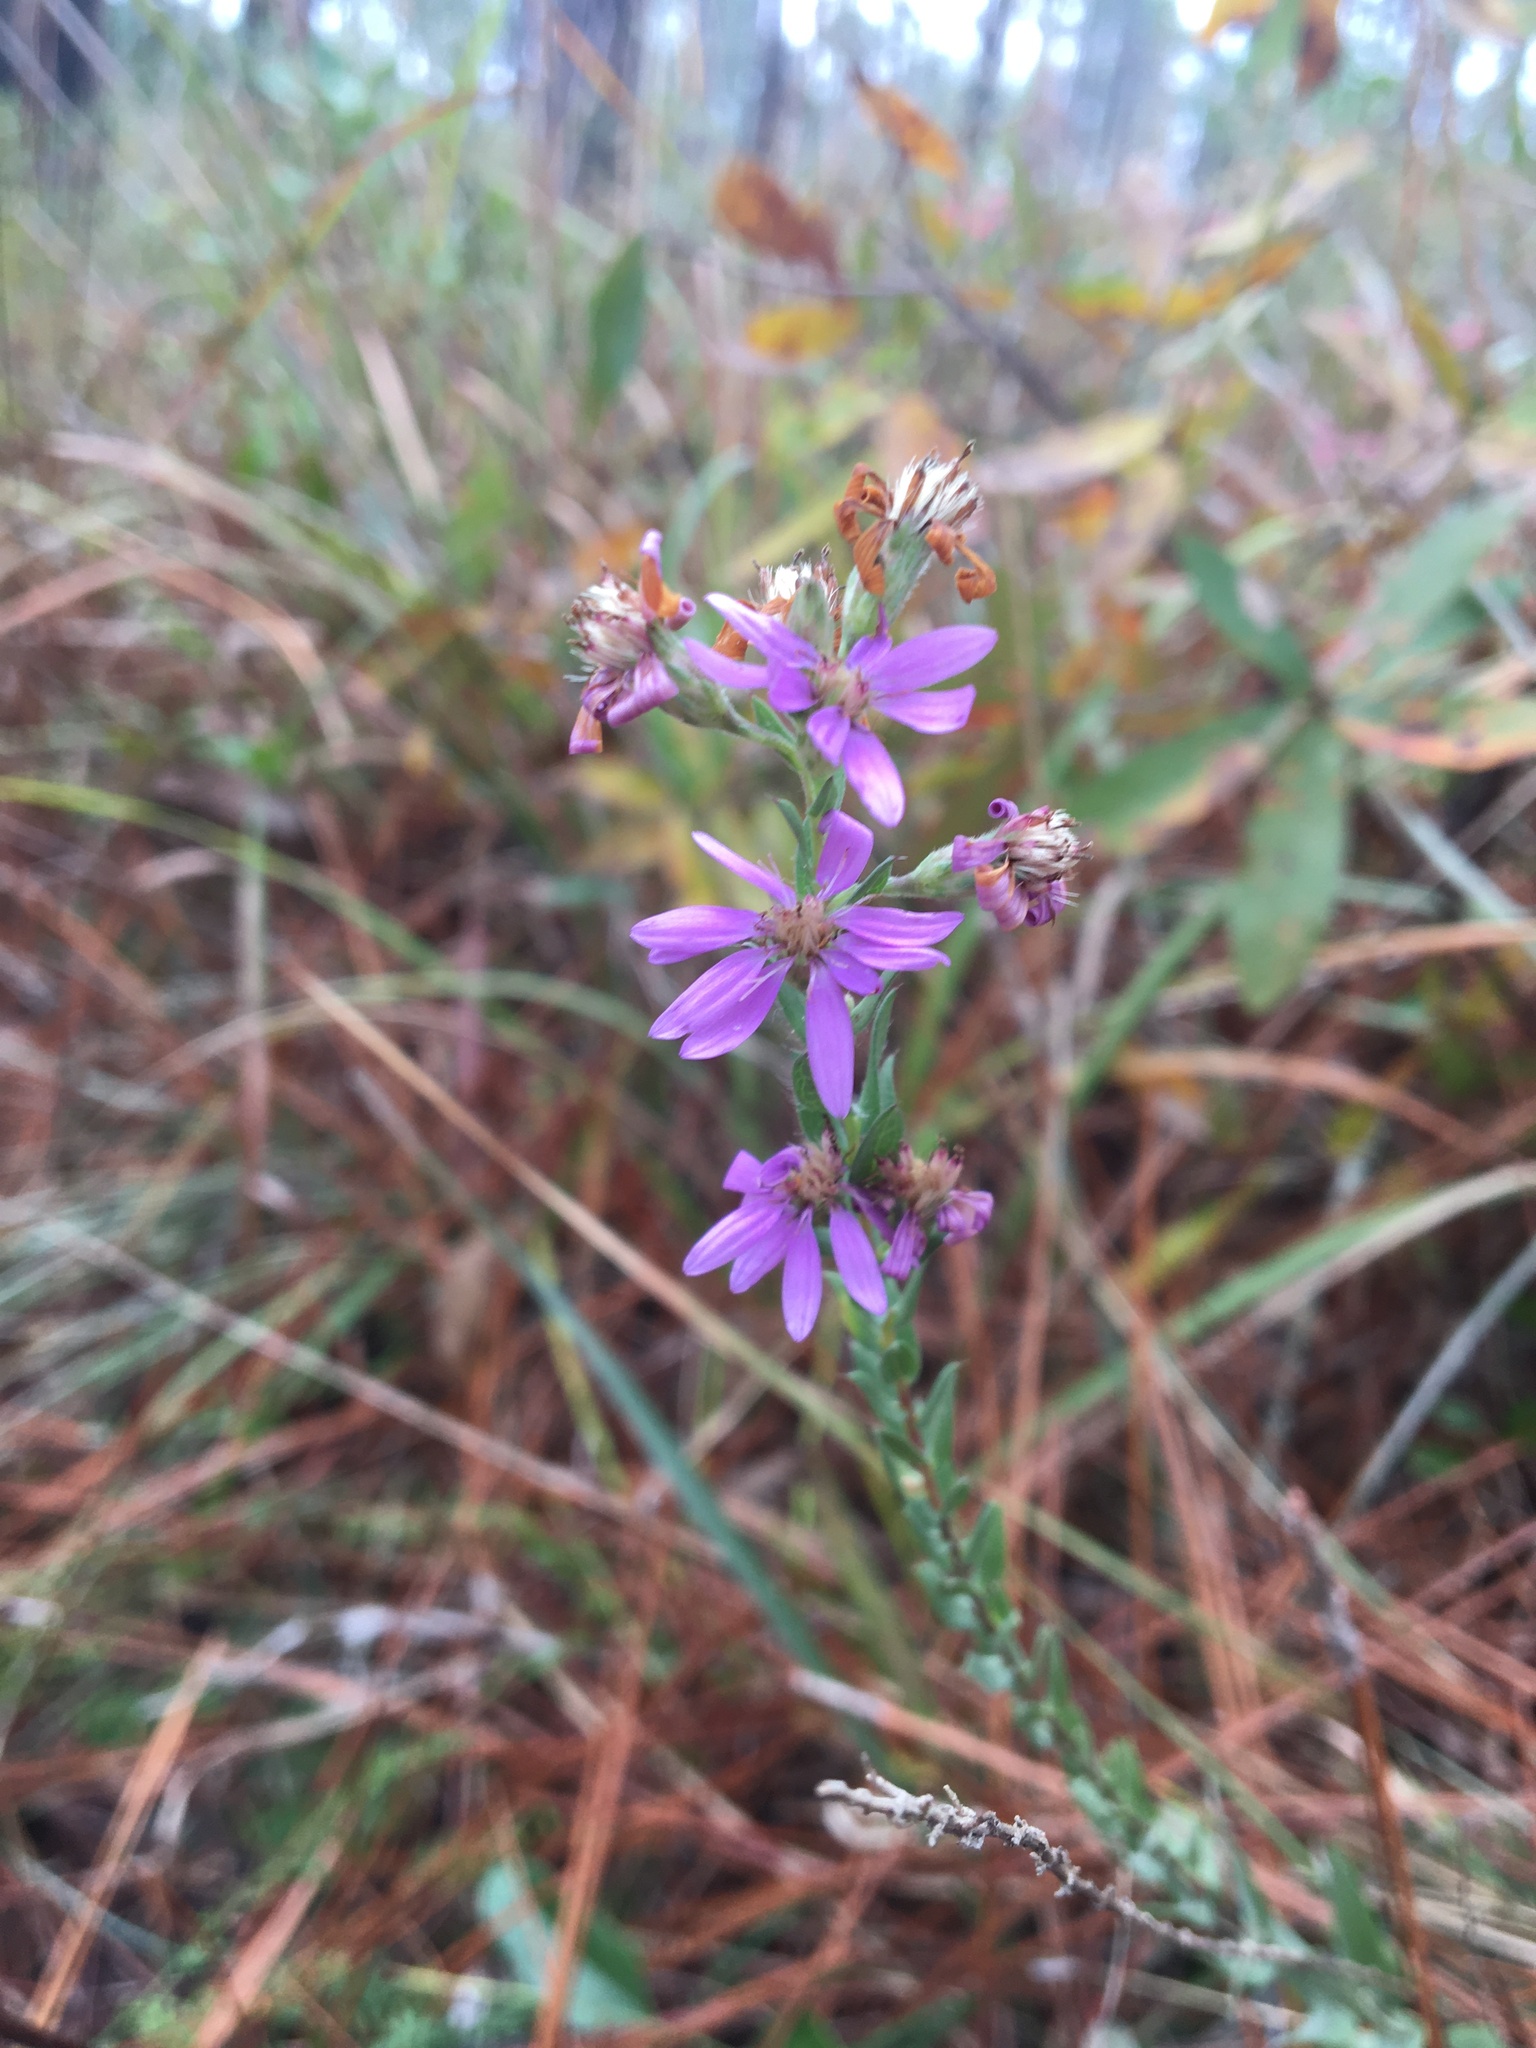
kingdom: Plantae
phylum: Tracheophyta
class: Magnoliopsida
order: Asterales
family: Asteraceae
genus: Symphyotrichum
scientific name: Symphyotrichum concolor
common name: Eastern silver aster
